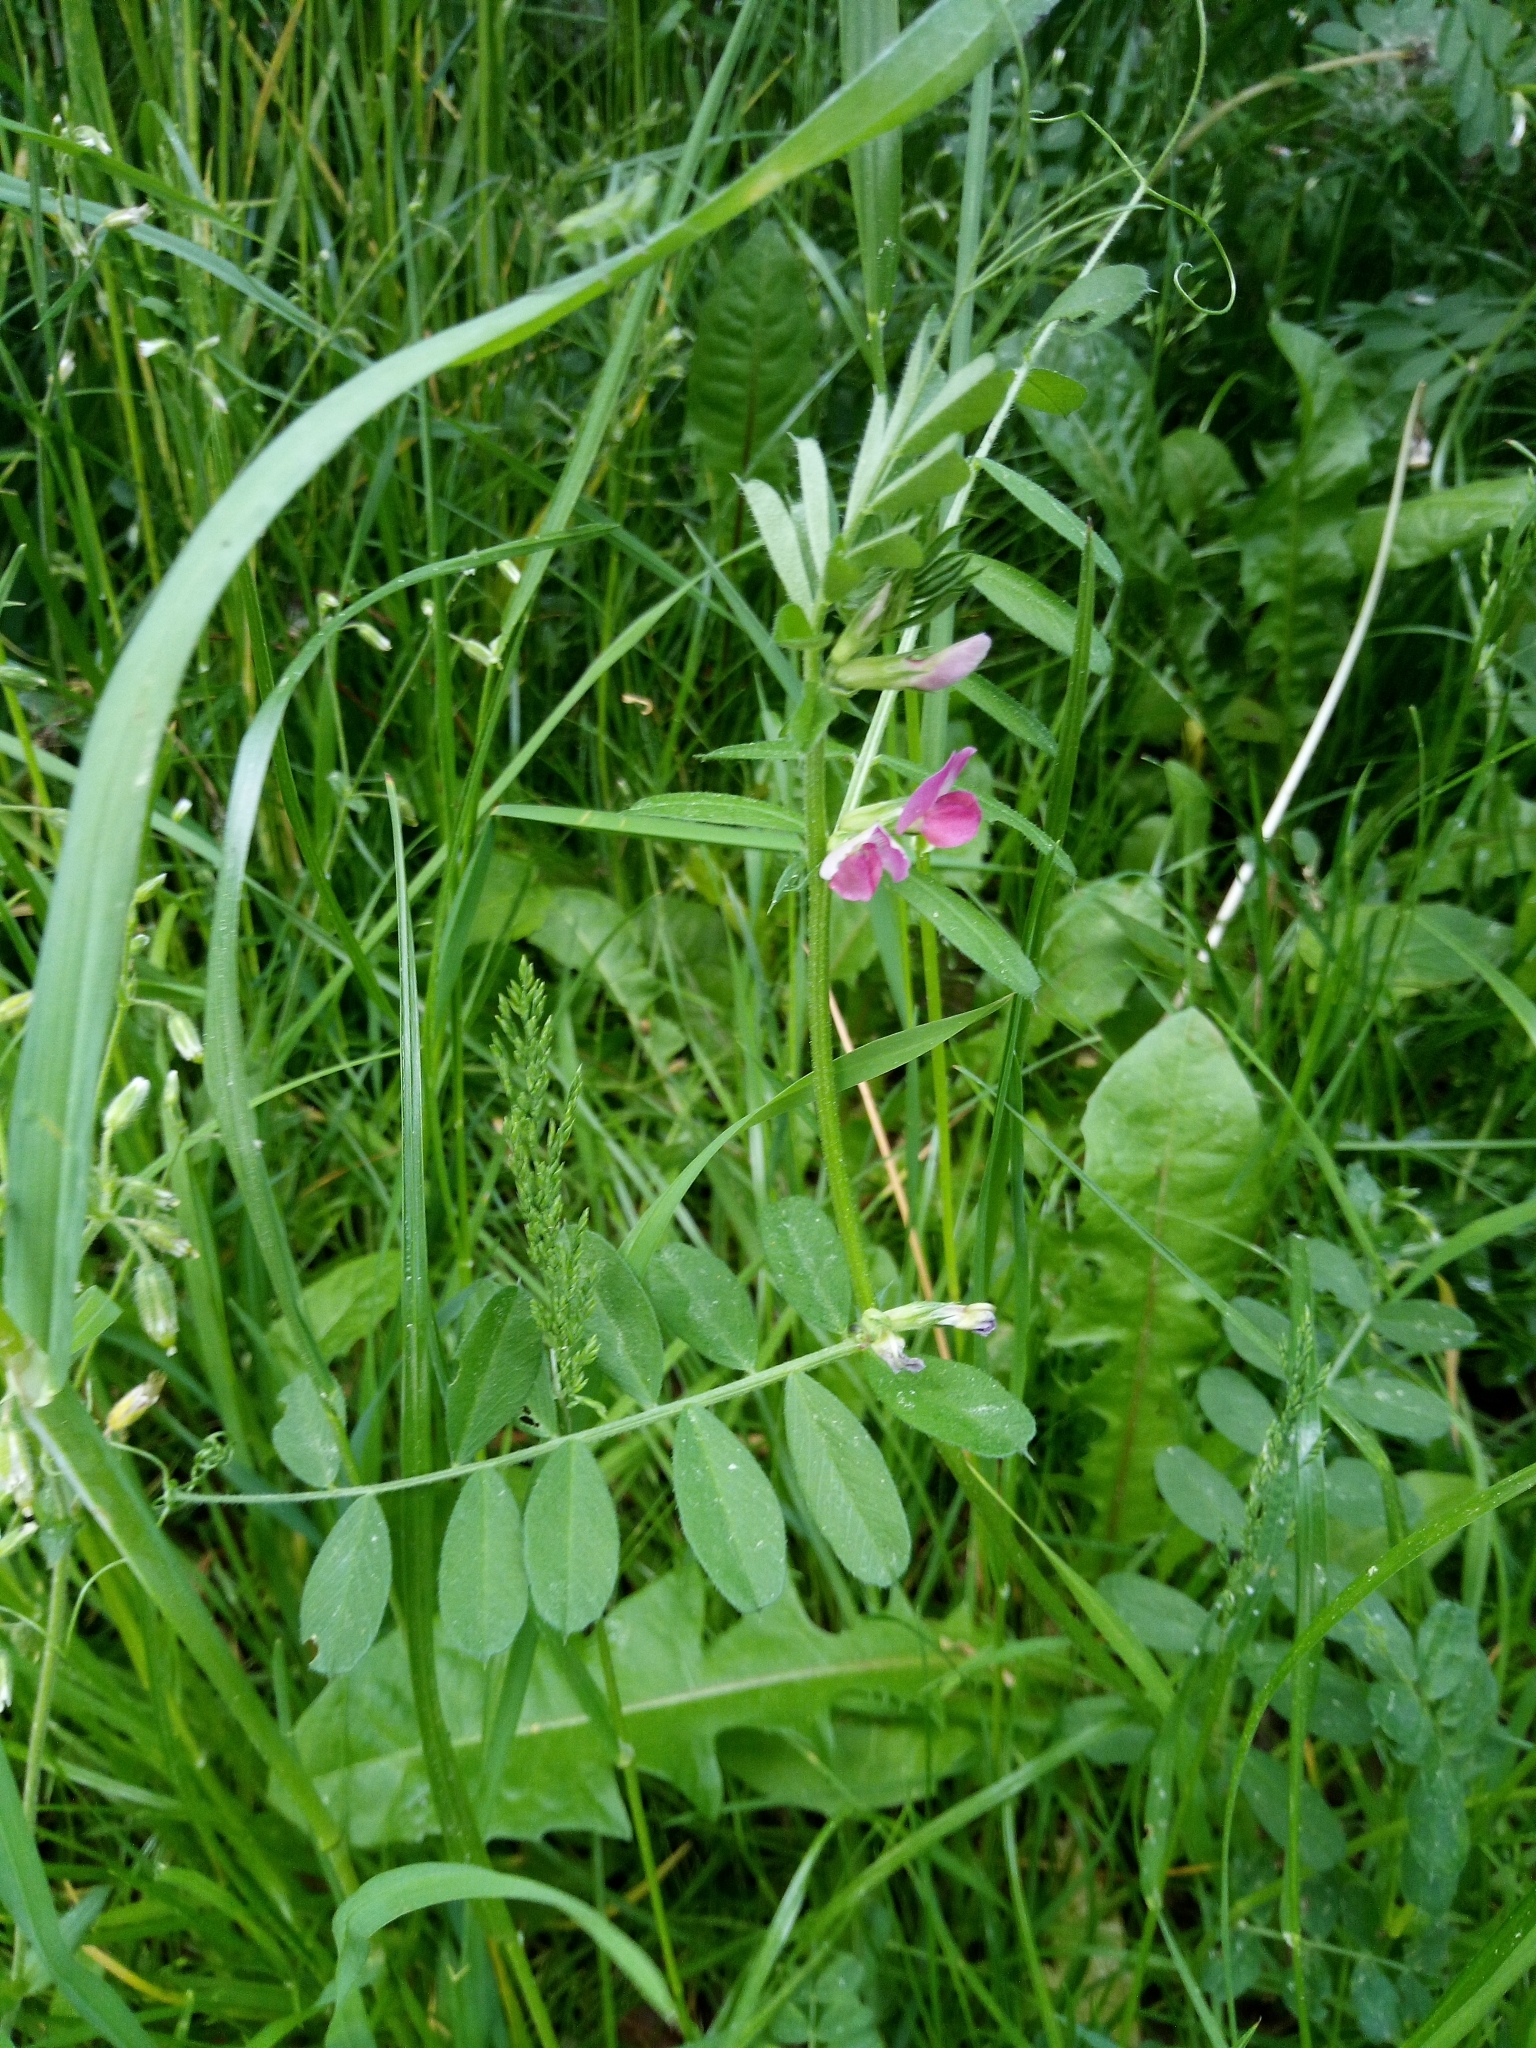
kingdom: Plantae
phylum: Tracheophyta
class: Magnoliopsida
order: Fabales
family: Fabaceae
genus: Vicia
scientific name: Vicia sativa
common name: Garden vetch
